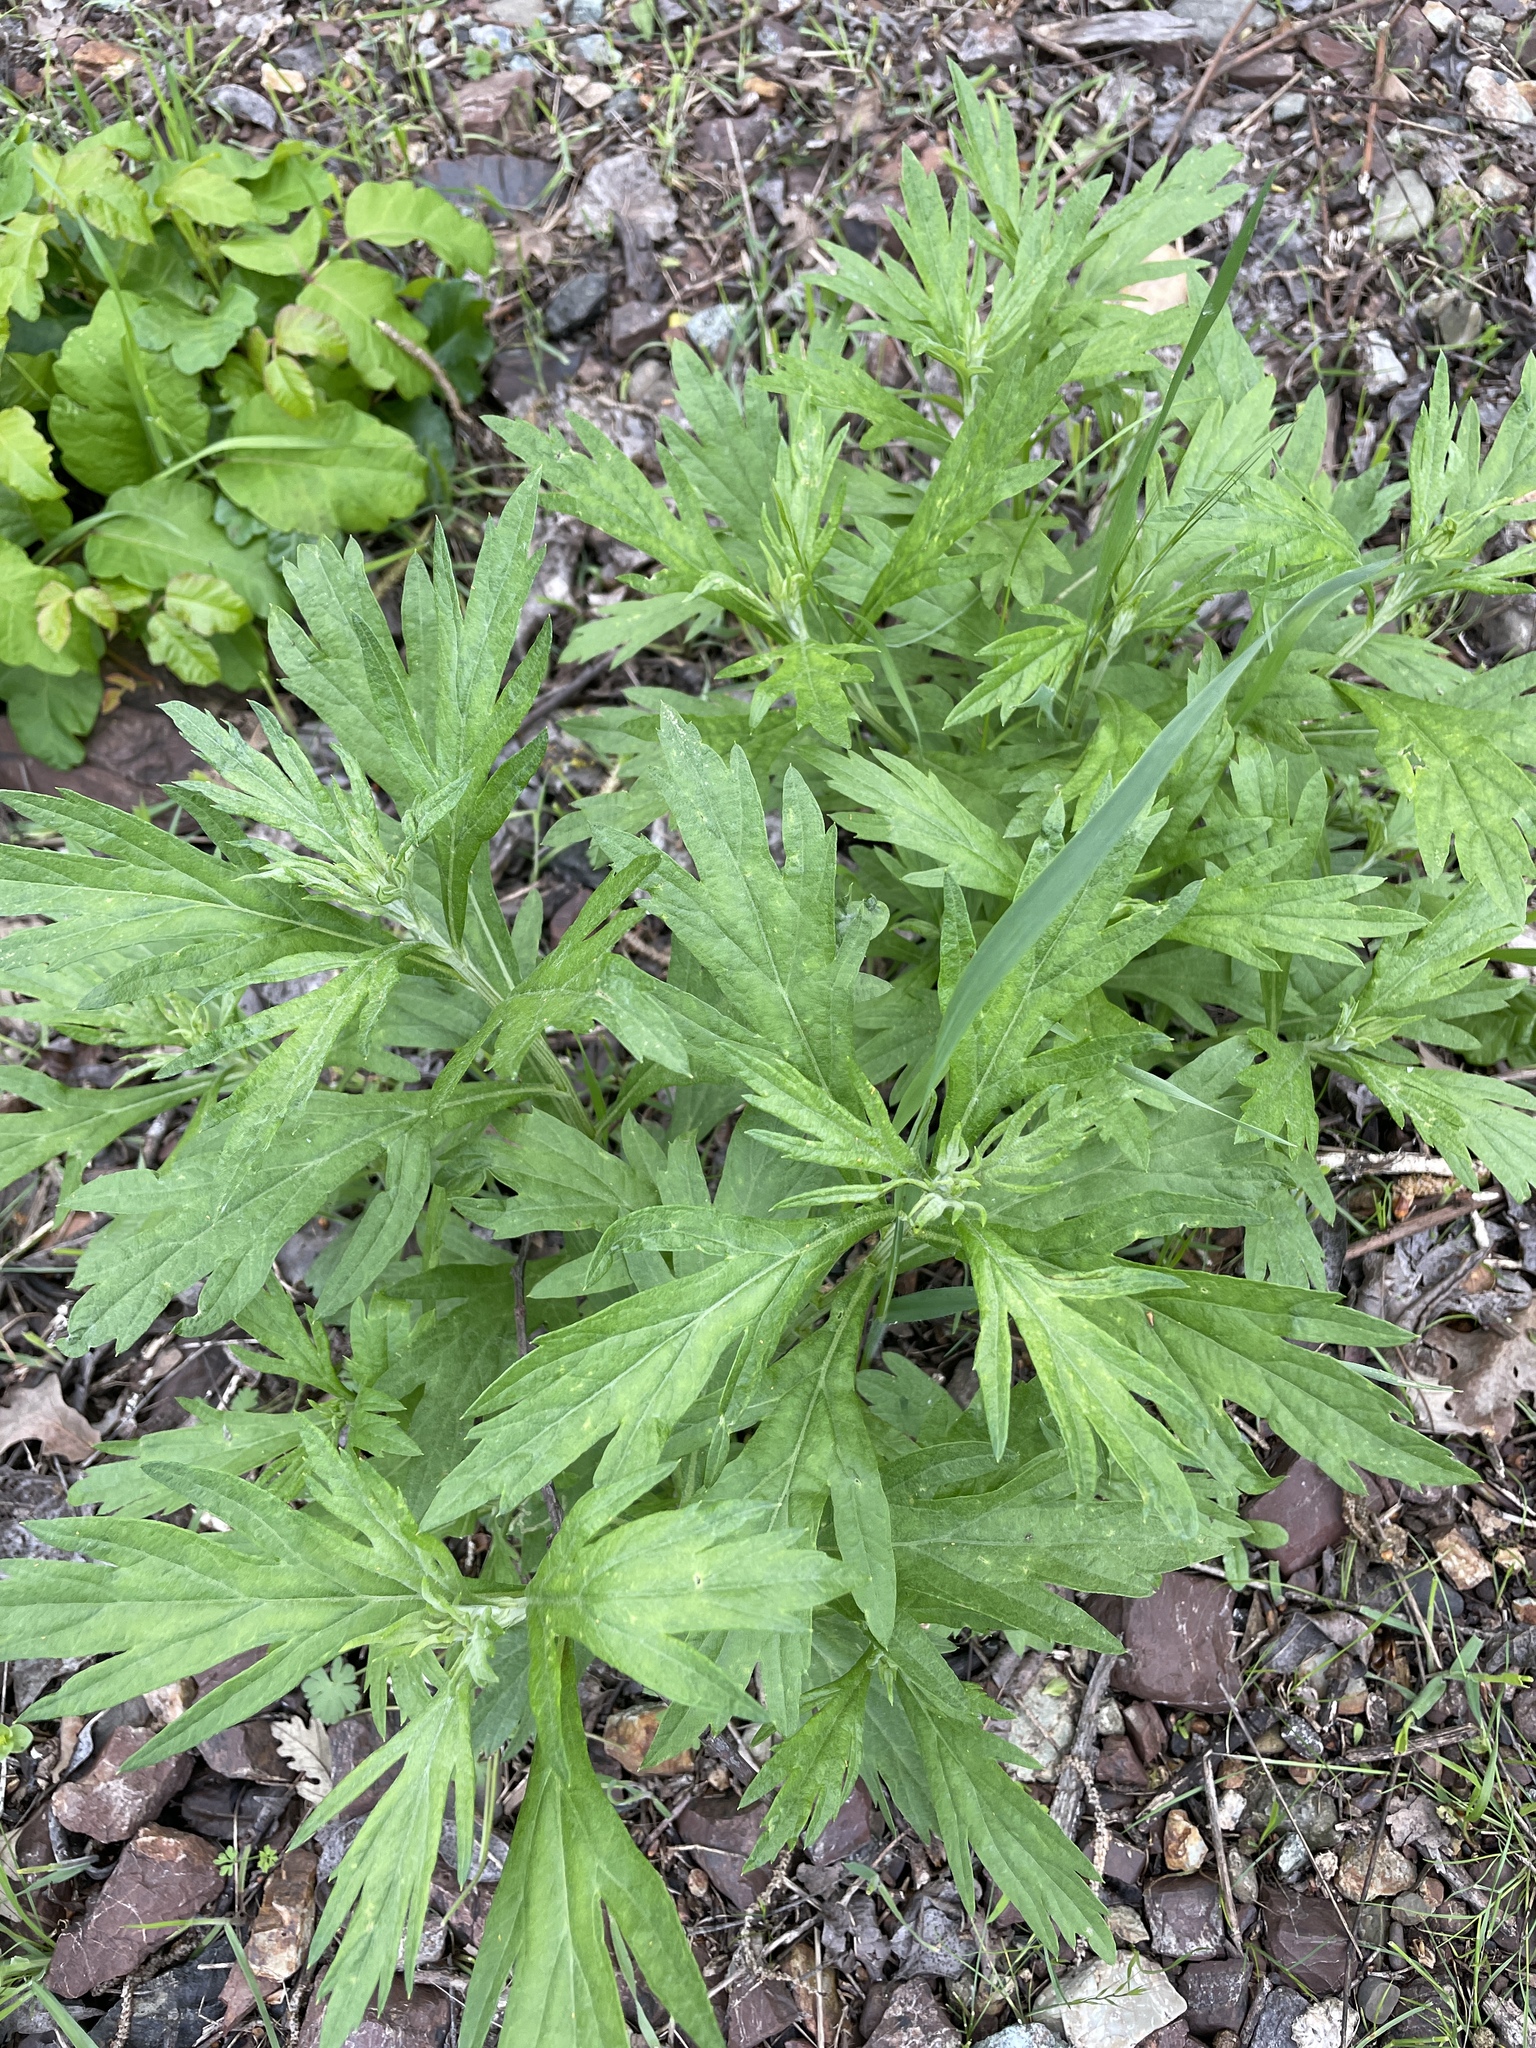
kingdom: Plantae
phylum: Tracheophyta
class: Magnoliopsida
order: Asterales
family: Asteraceae
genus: Artemisia
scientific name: Artemisia douglasiana
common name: Northwest mugwort
